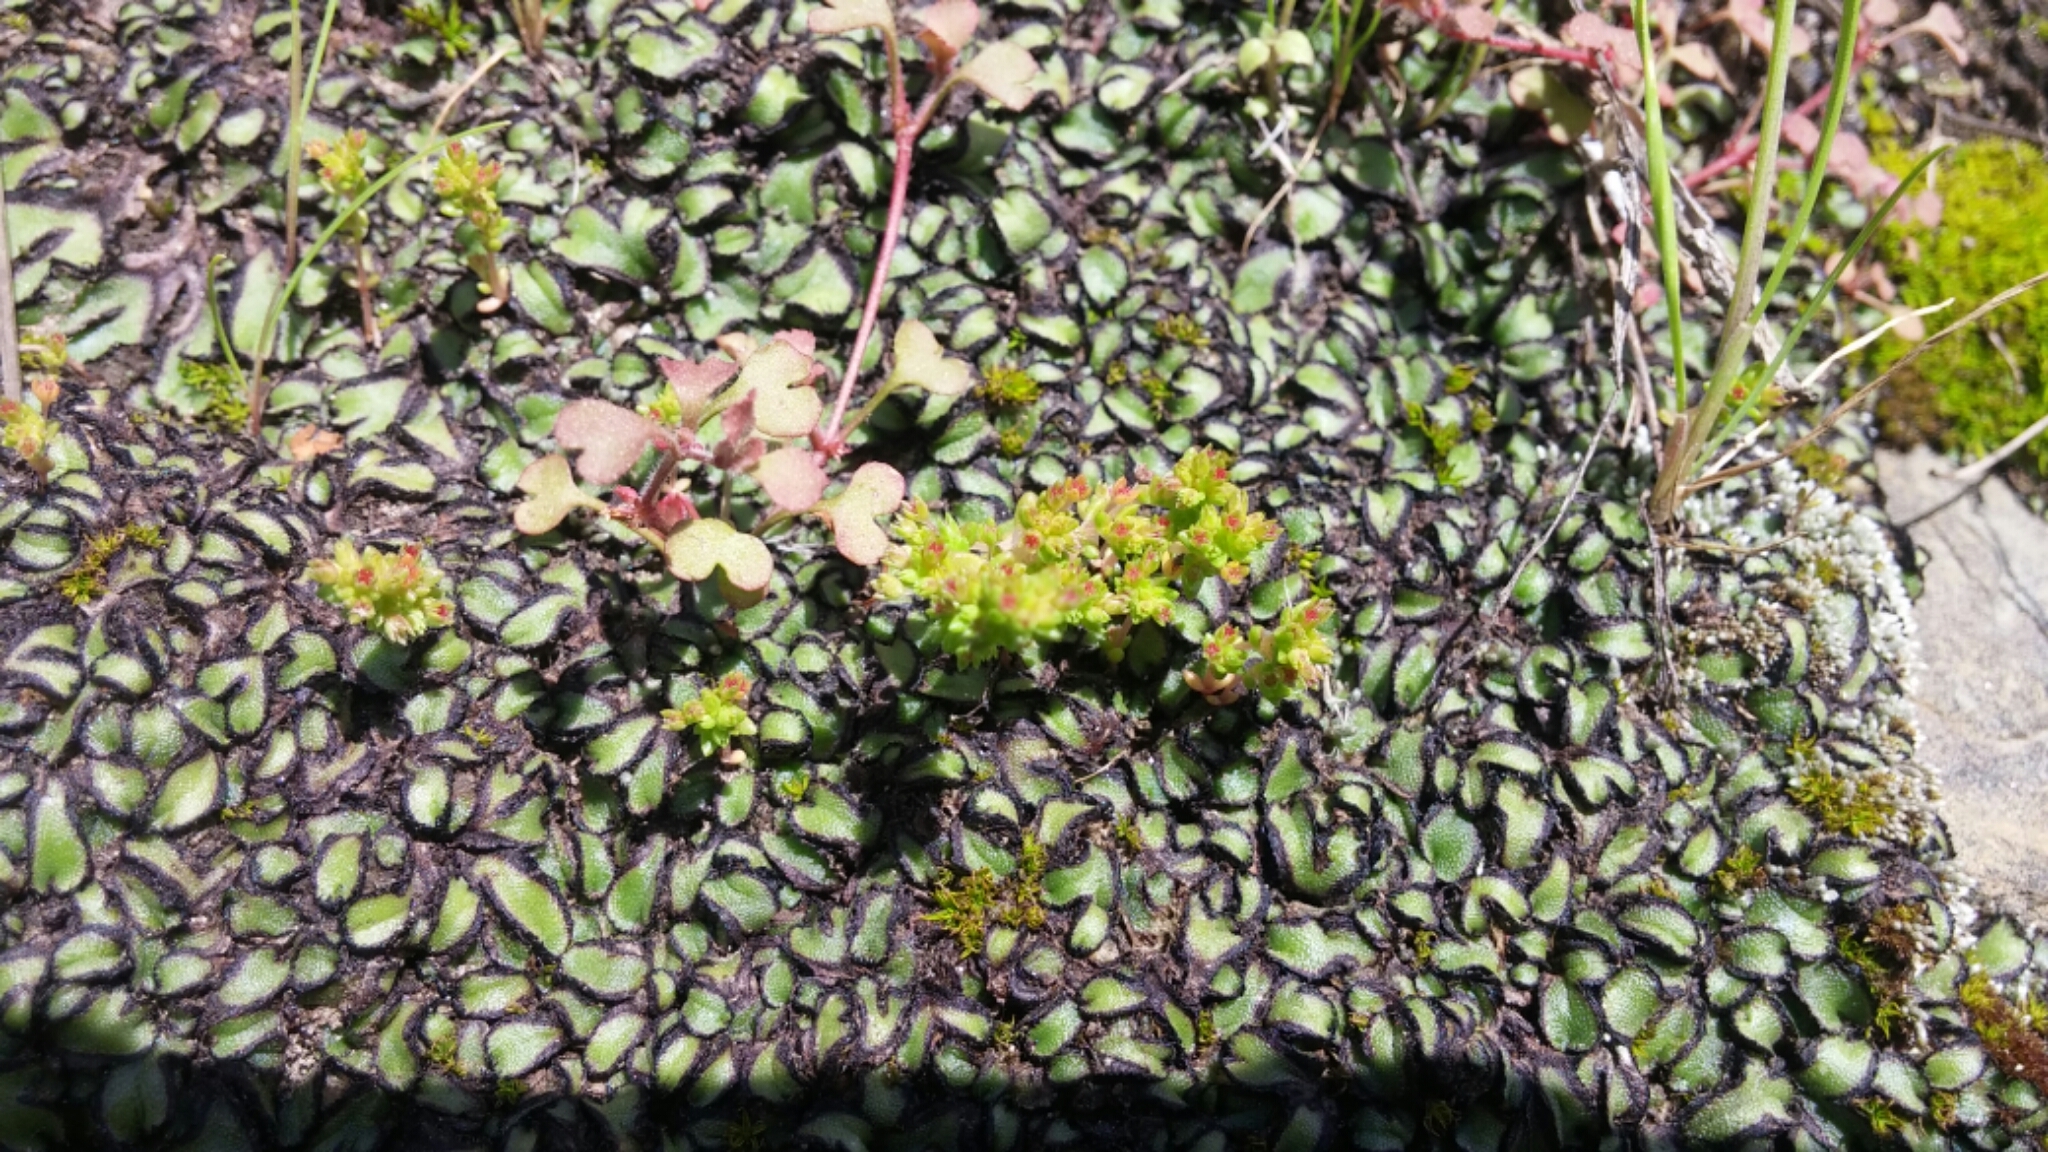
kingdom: Plantae
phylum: Tracheophyta
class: Magnoliopsida
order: Saxifragales
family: Crassulaceae
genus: Crassula
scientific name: Crassula connata
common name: Erect pygmyweed
